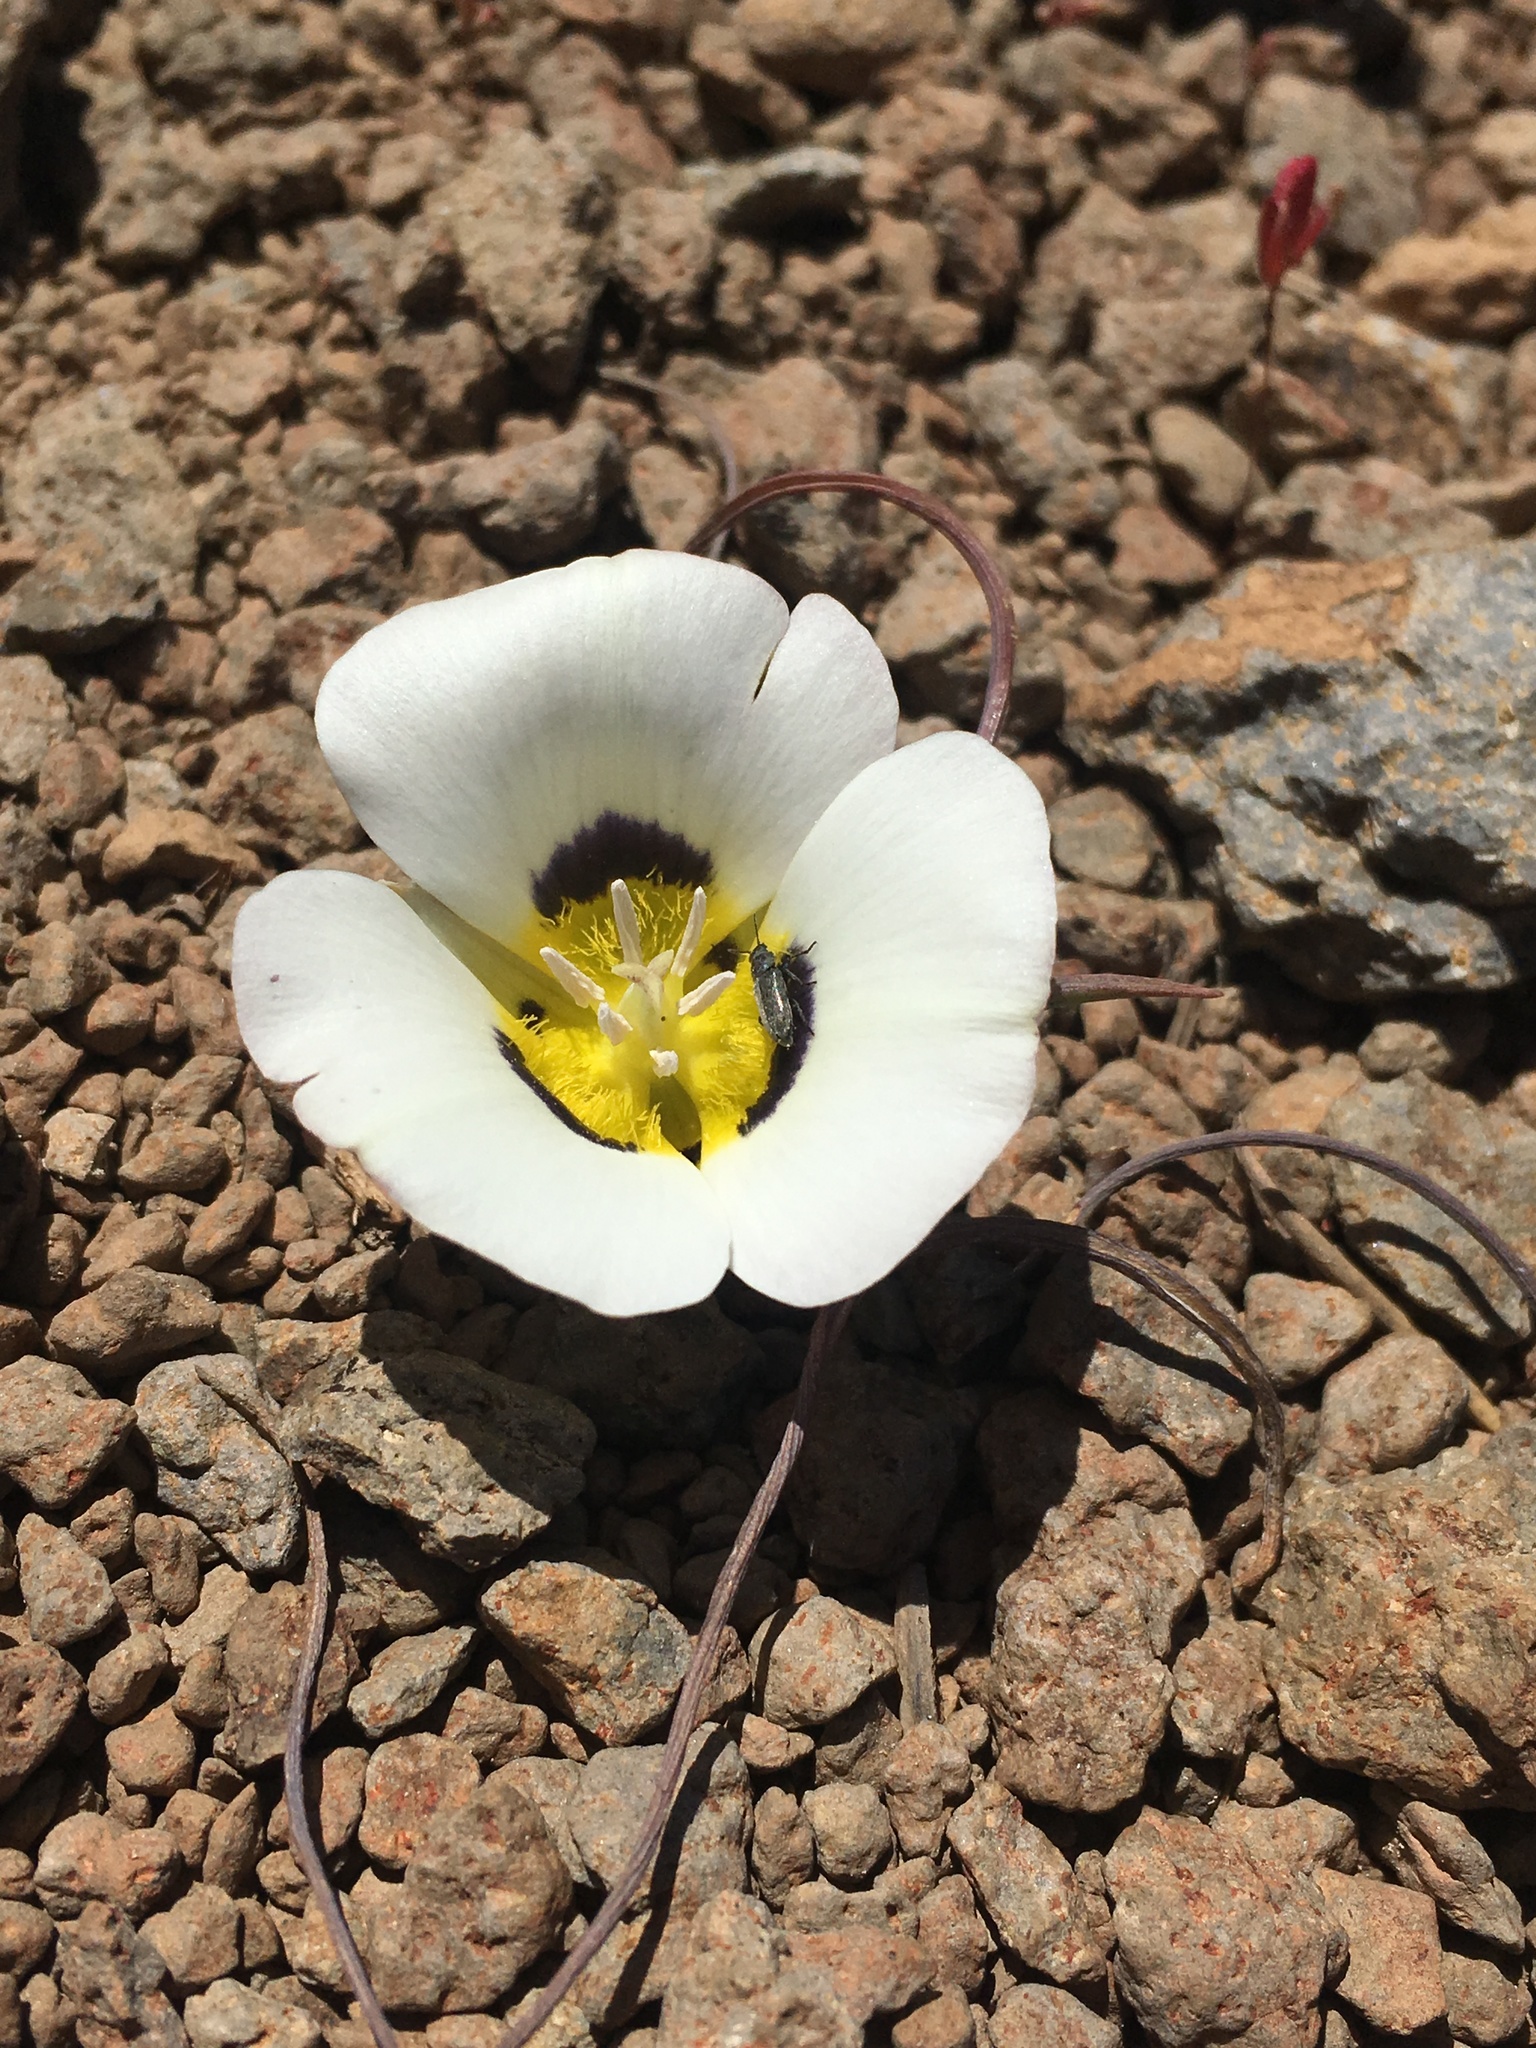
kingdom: Plantae
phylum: Tracheophyta
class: Liliopsida
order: Liliales
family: Liliaceae
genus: Calochortus
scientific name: Calochortus leichtlinii
